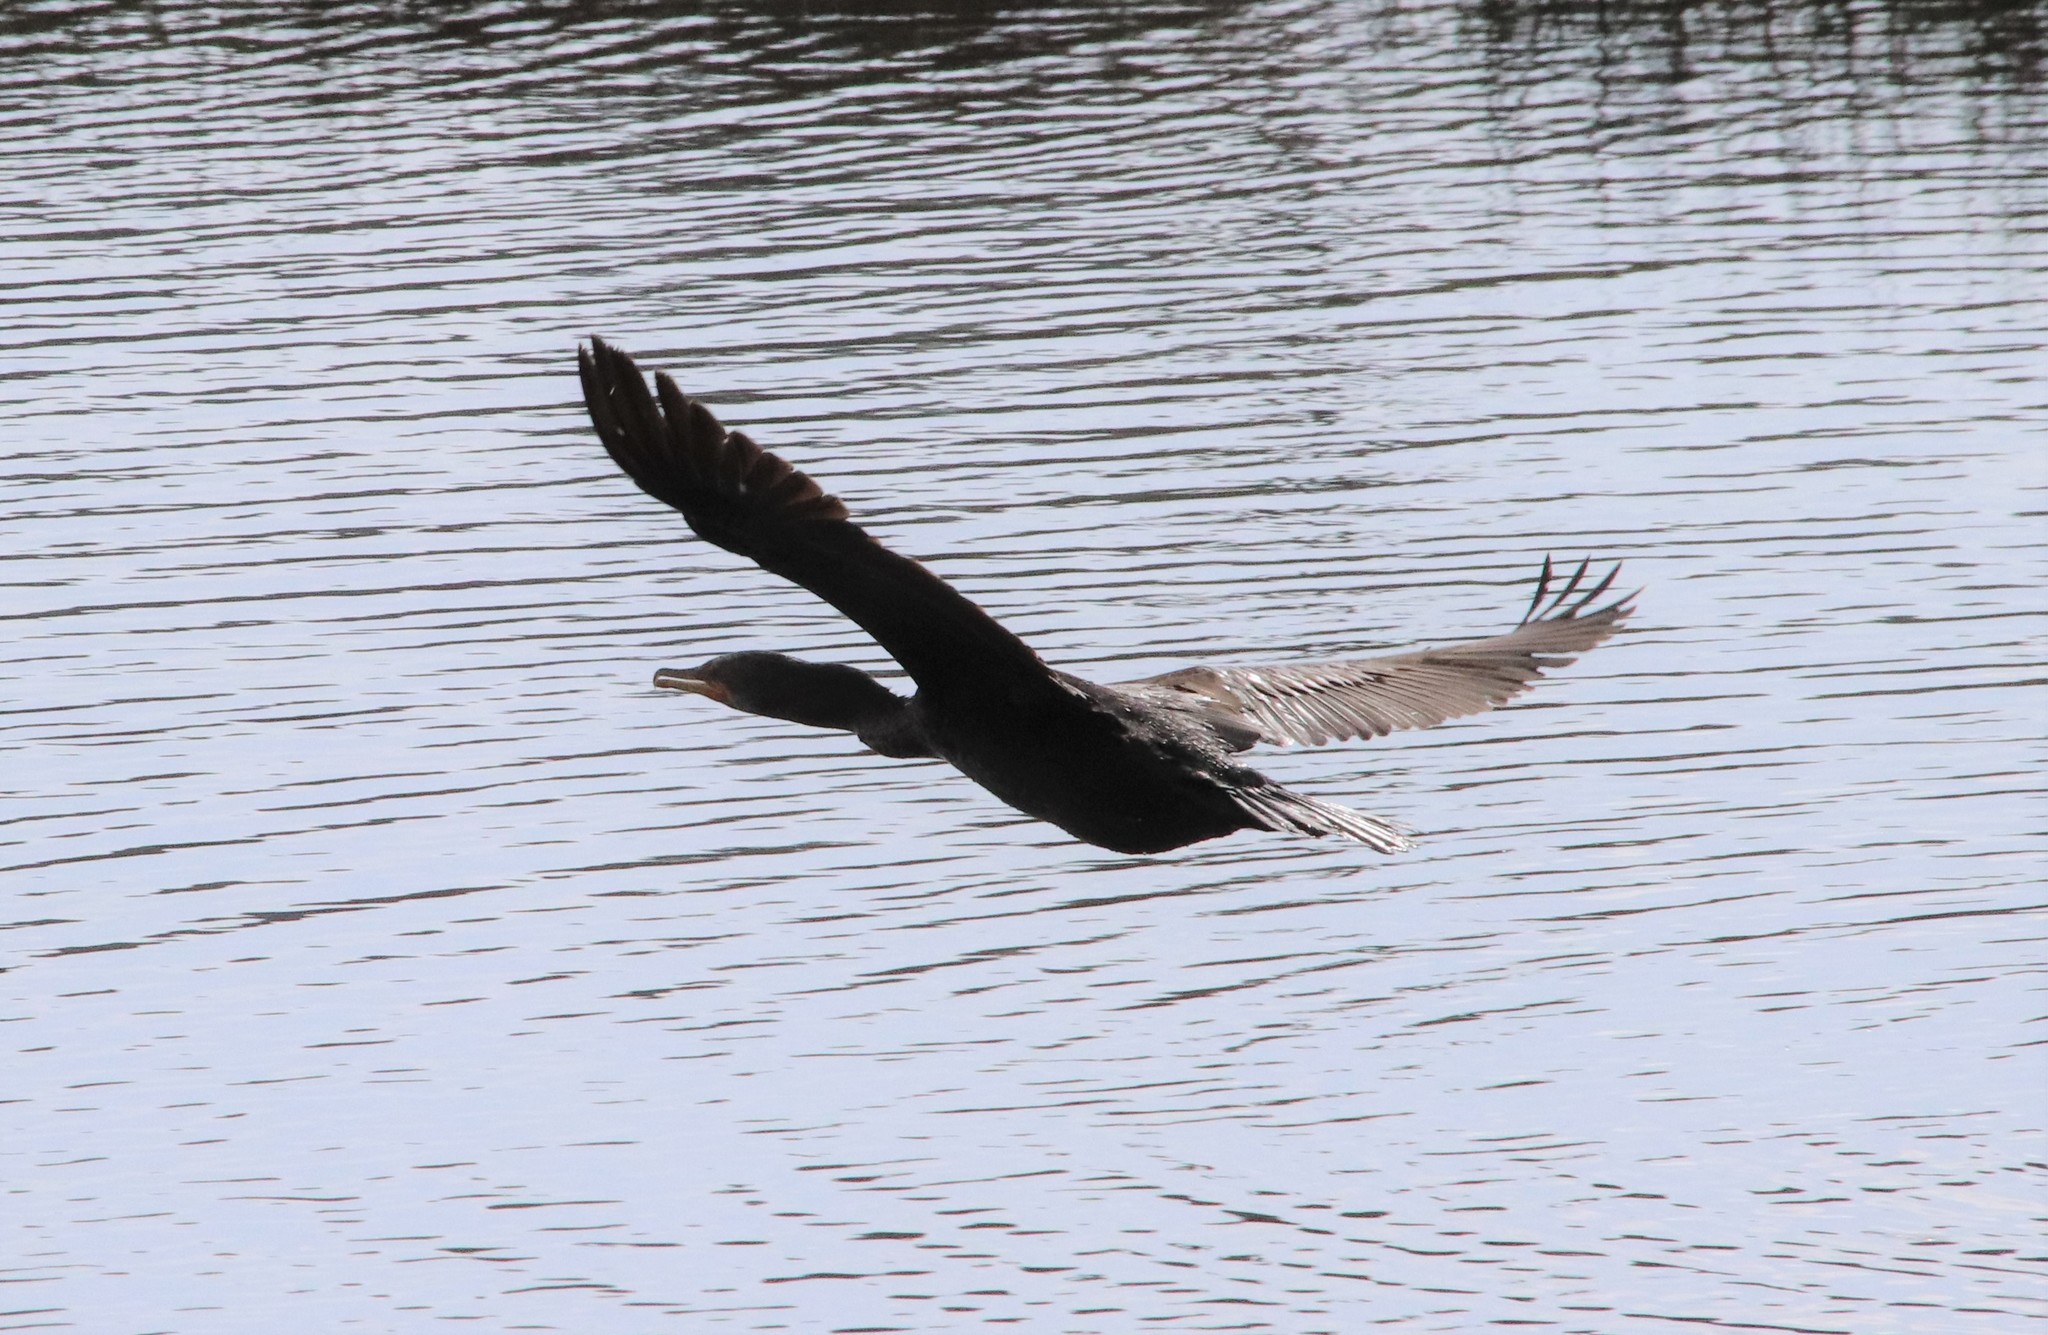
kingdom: Animalia
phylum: Chordata
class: Aves
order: Suliformes
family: Phalacrocoracidae
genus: Phalacrocorax
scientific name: Phalacrocorax auritus
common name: Double-crested cormorant
